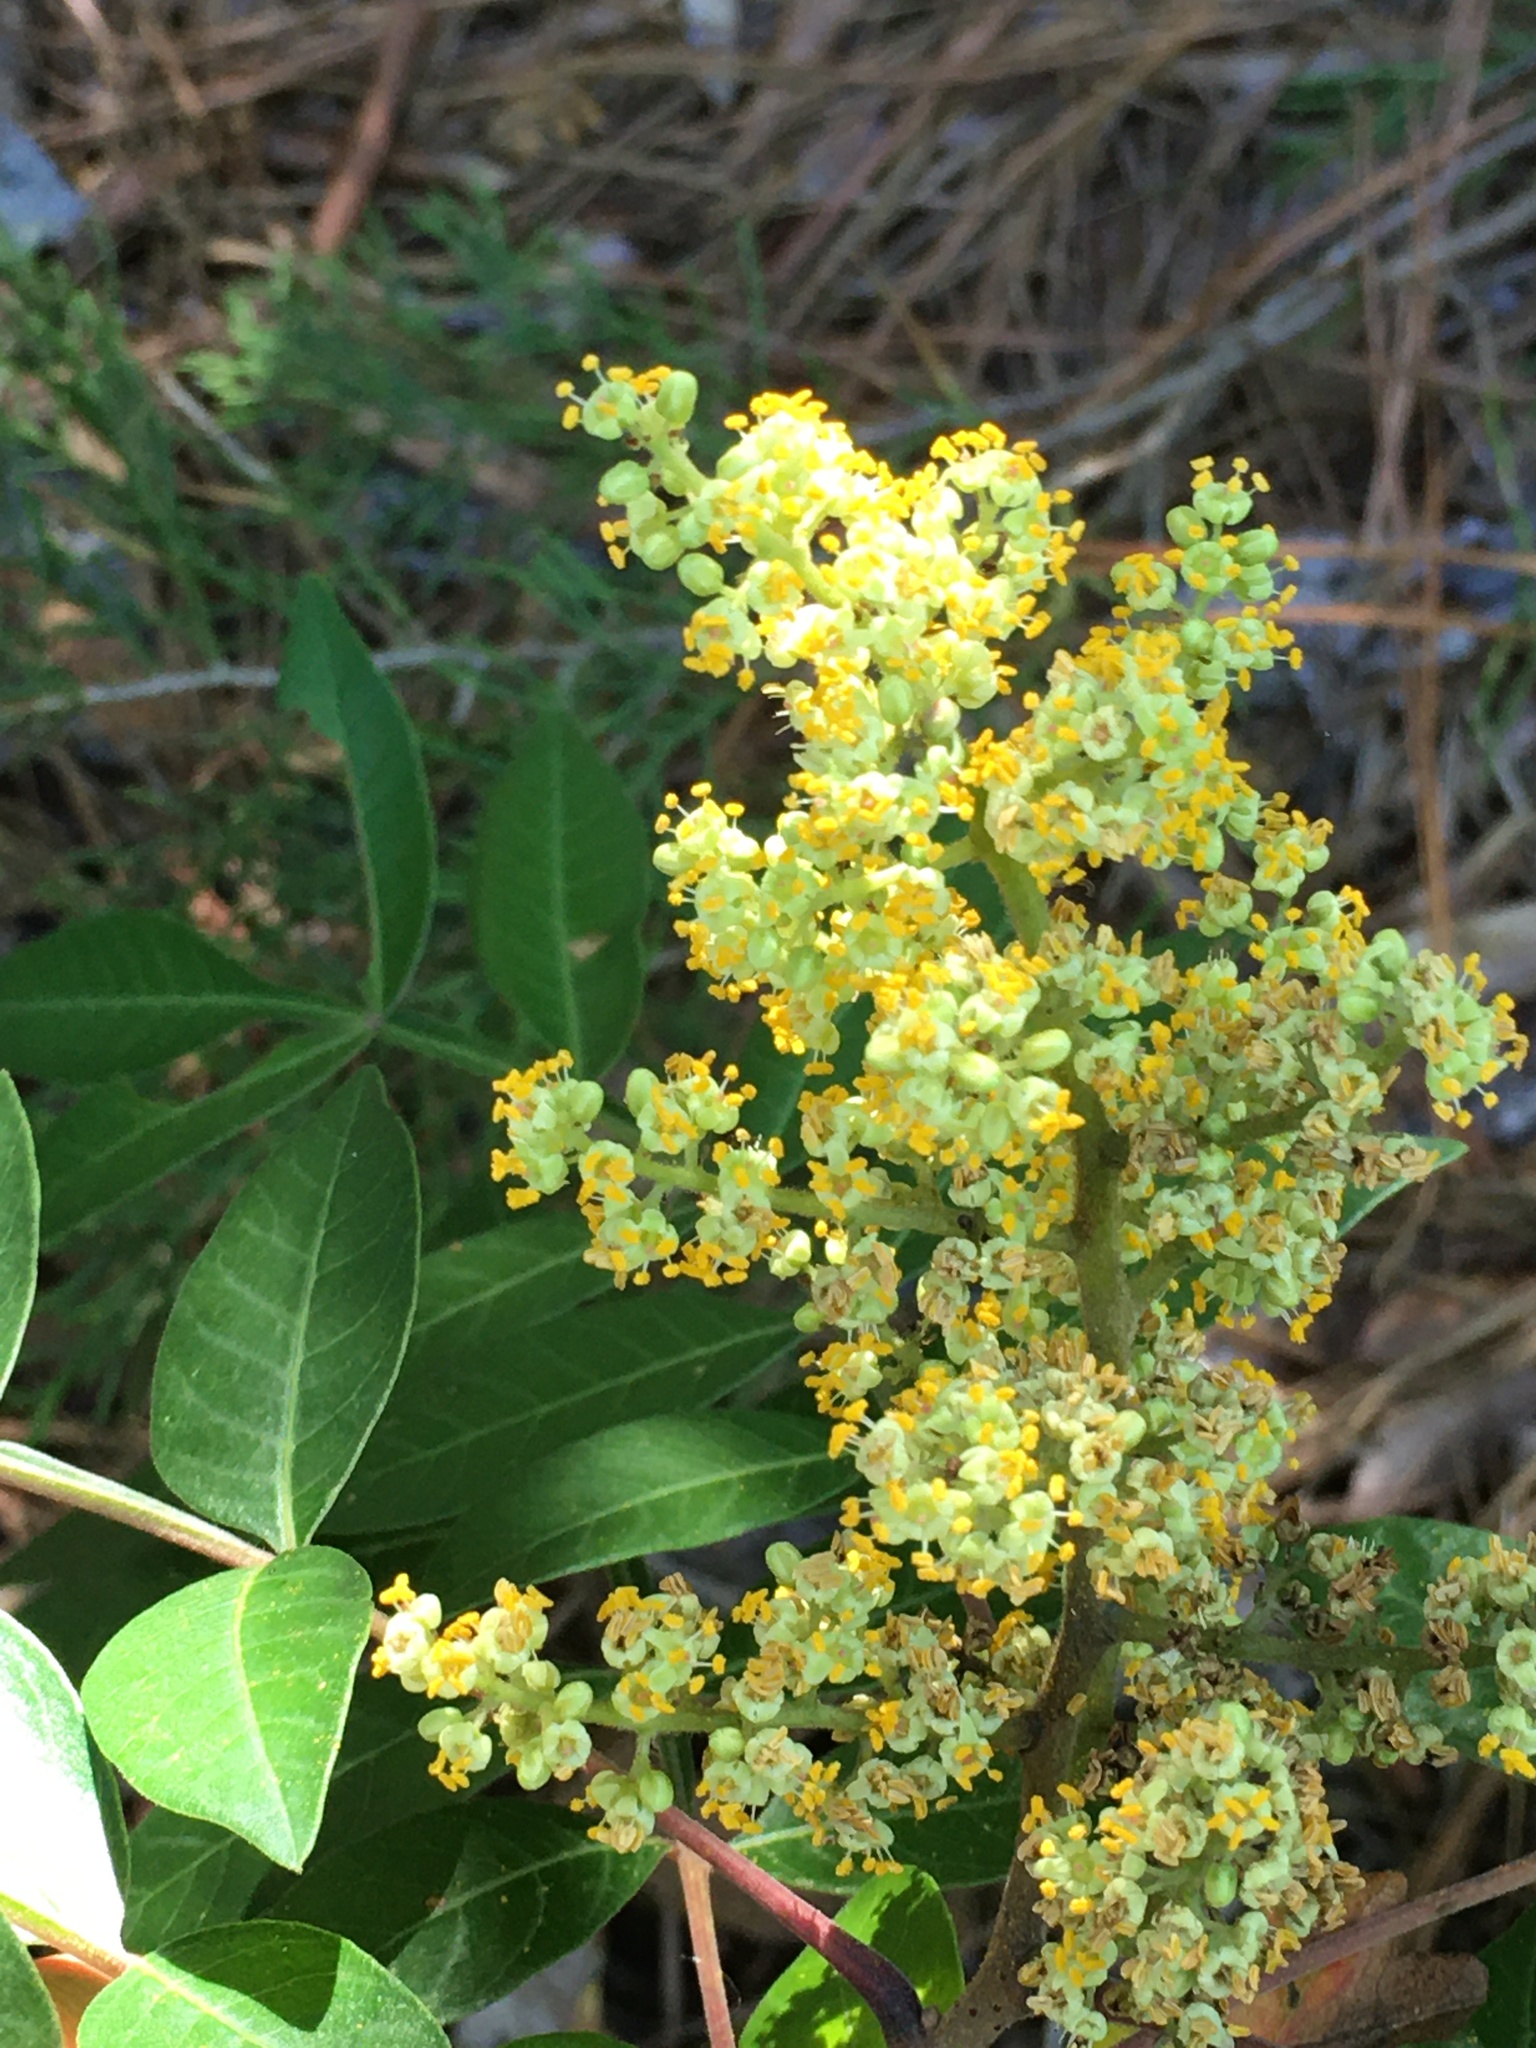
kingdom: Plantae
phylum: Tracheophyta
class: Magnoliopsida
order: Sapindales
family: Anacardiaceae
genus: Rhus
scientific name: Rhus copallina
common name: Shining sumac
